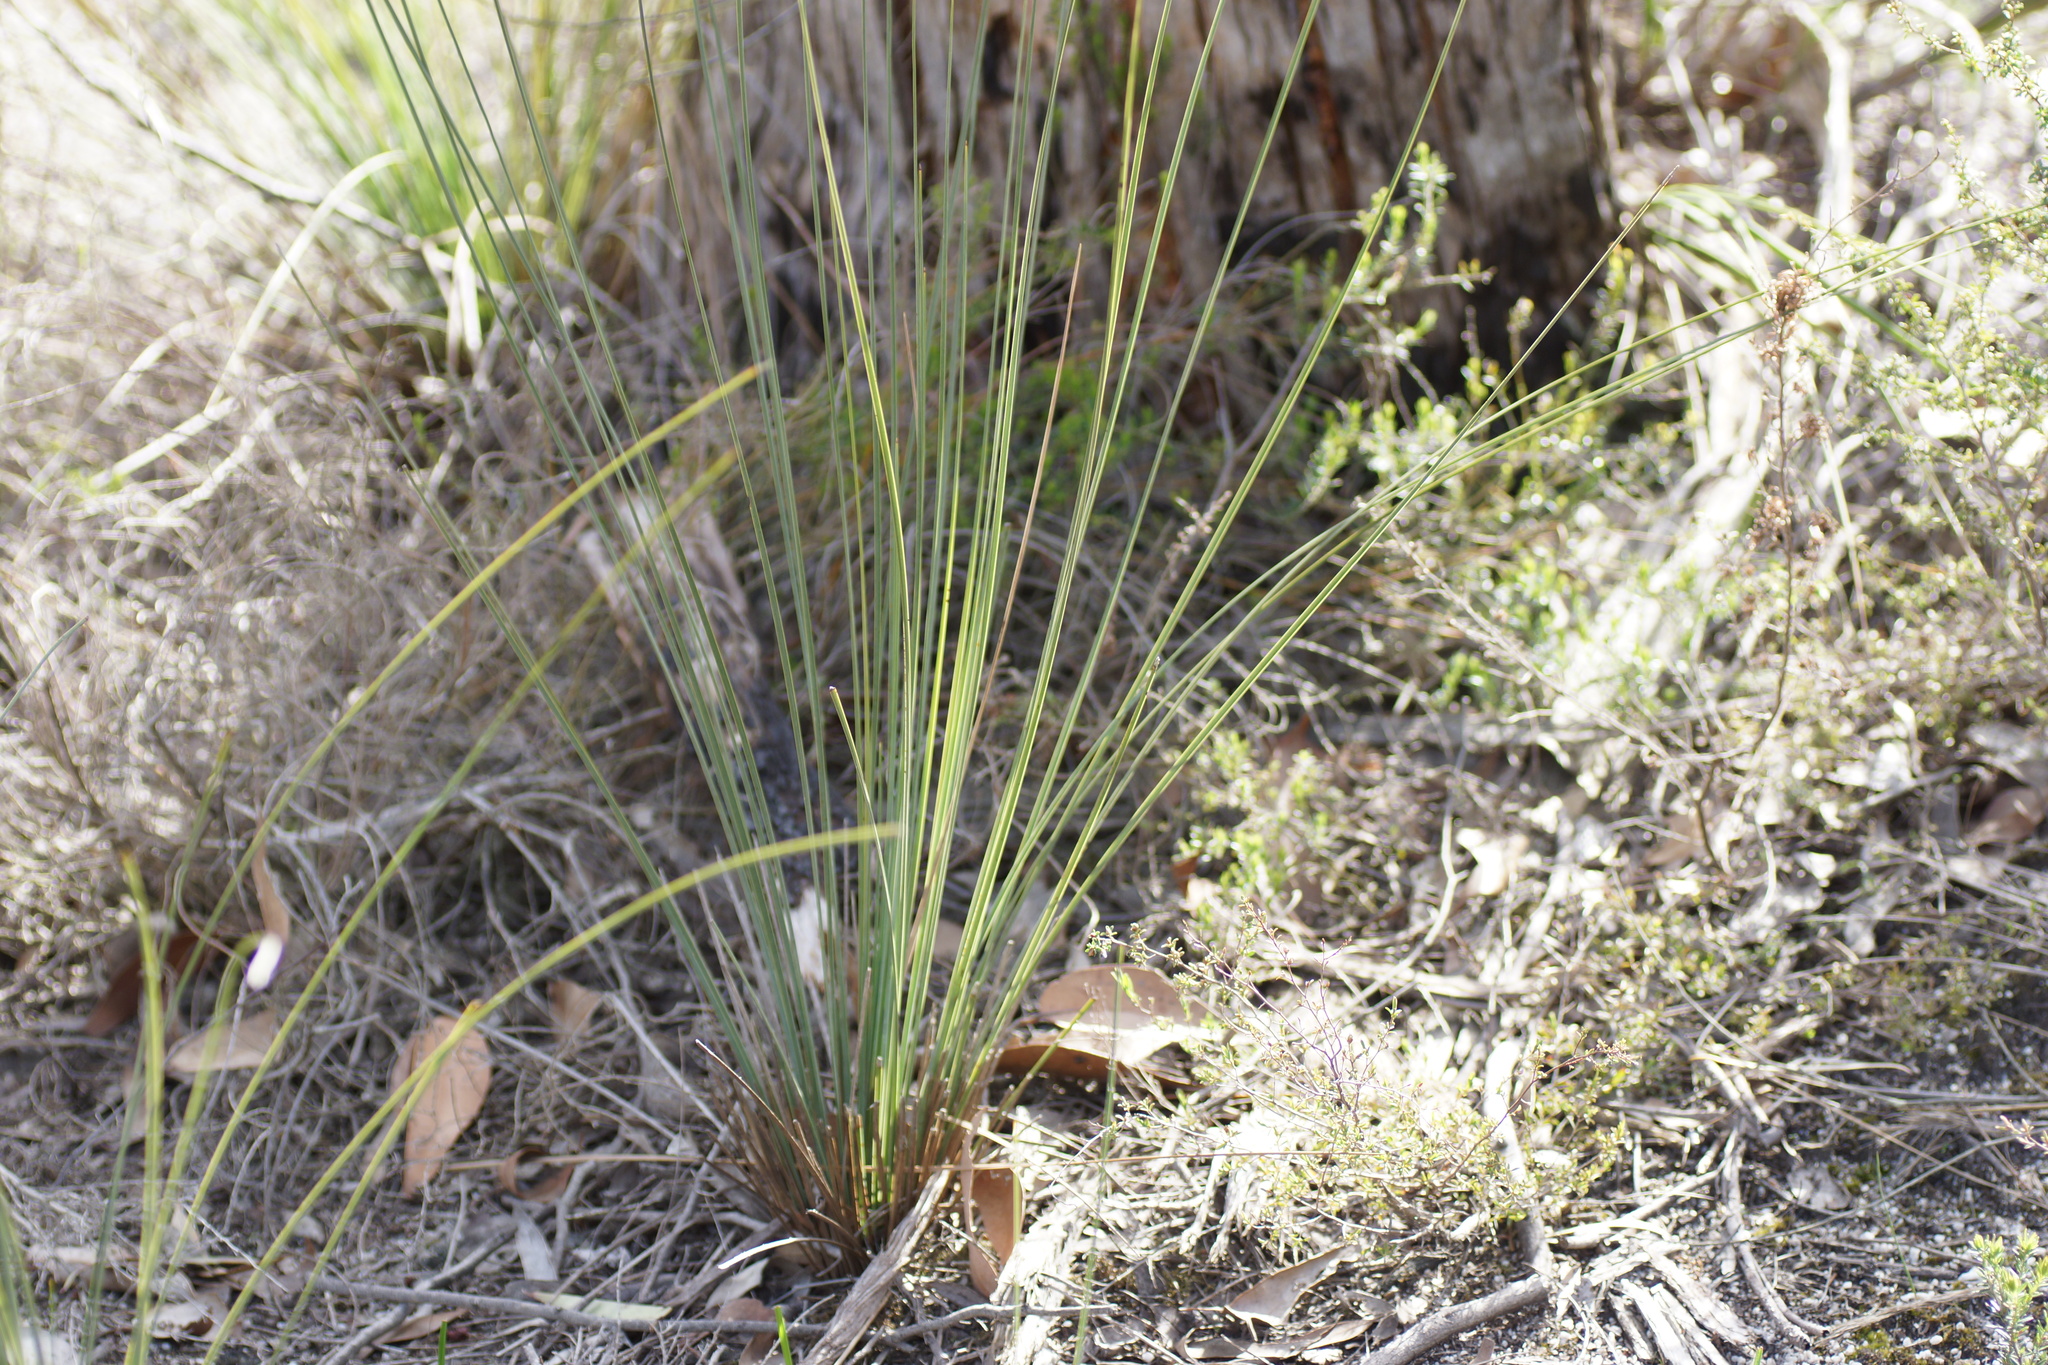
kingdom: Plantae
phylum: Tracheophyta
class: Liliopsida
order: Asparagales
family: Asphodelaceae
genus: Xanthorrhoea
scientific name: Xanthorrhoea australis
